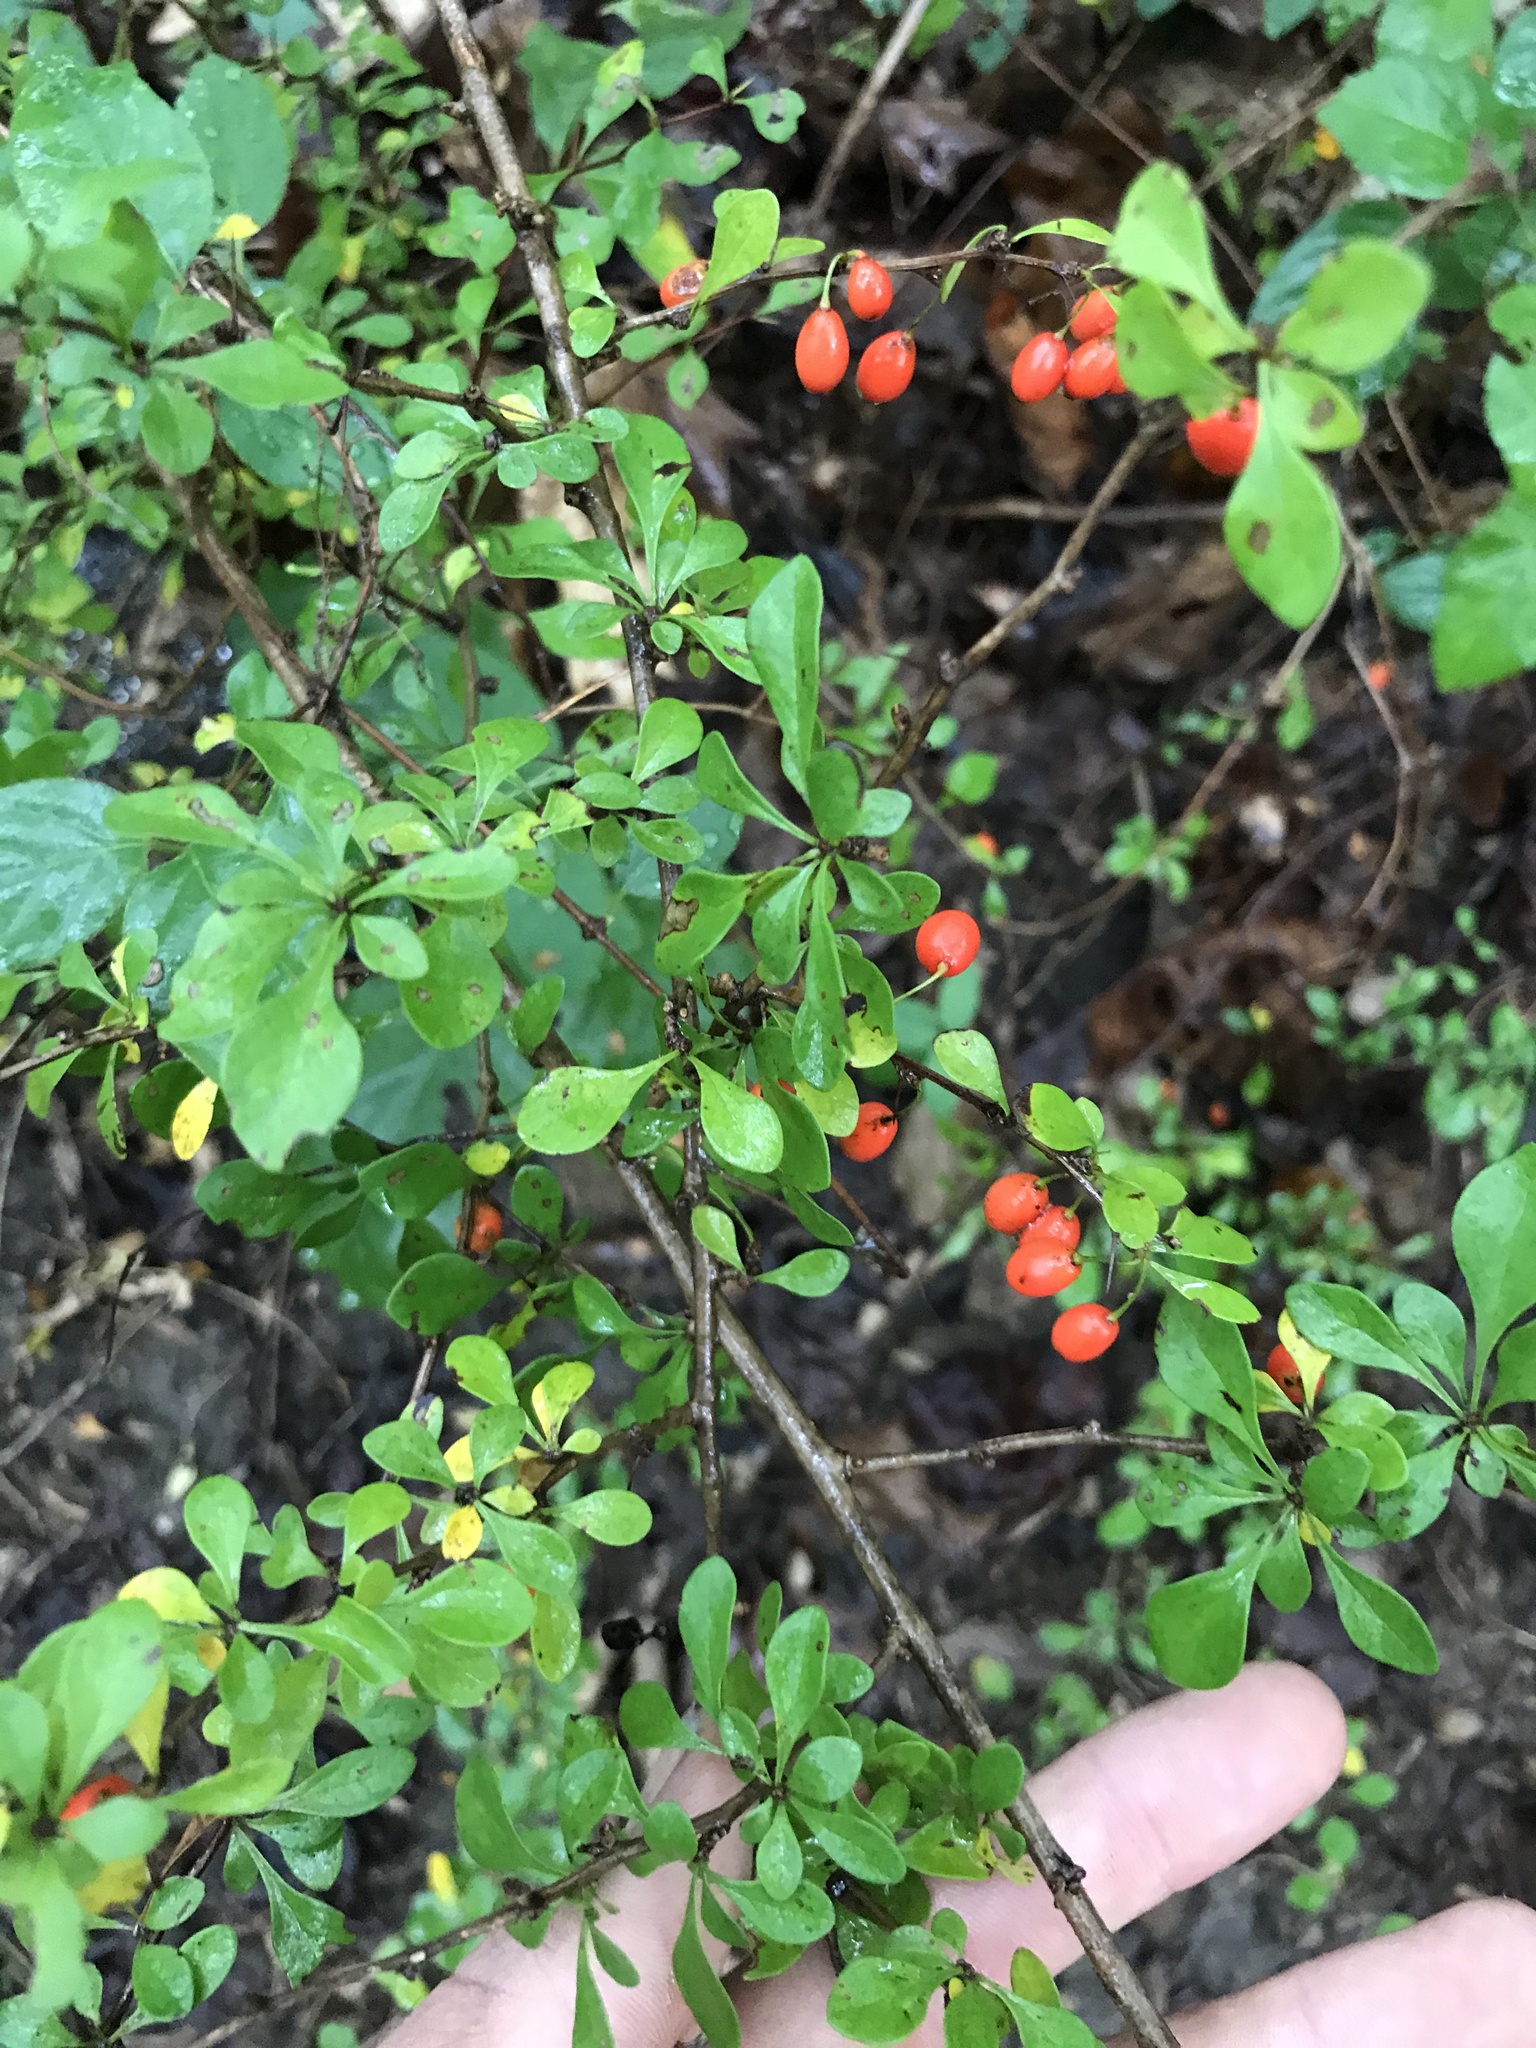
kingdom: Plantae
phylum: Tracheophyta
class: Magnoliopsida
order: Ranunculales
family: Berberidaceae
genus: Berberis
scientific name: Berberis thunbergii
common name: Japanese barberry
